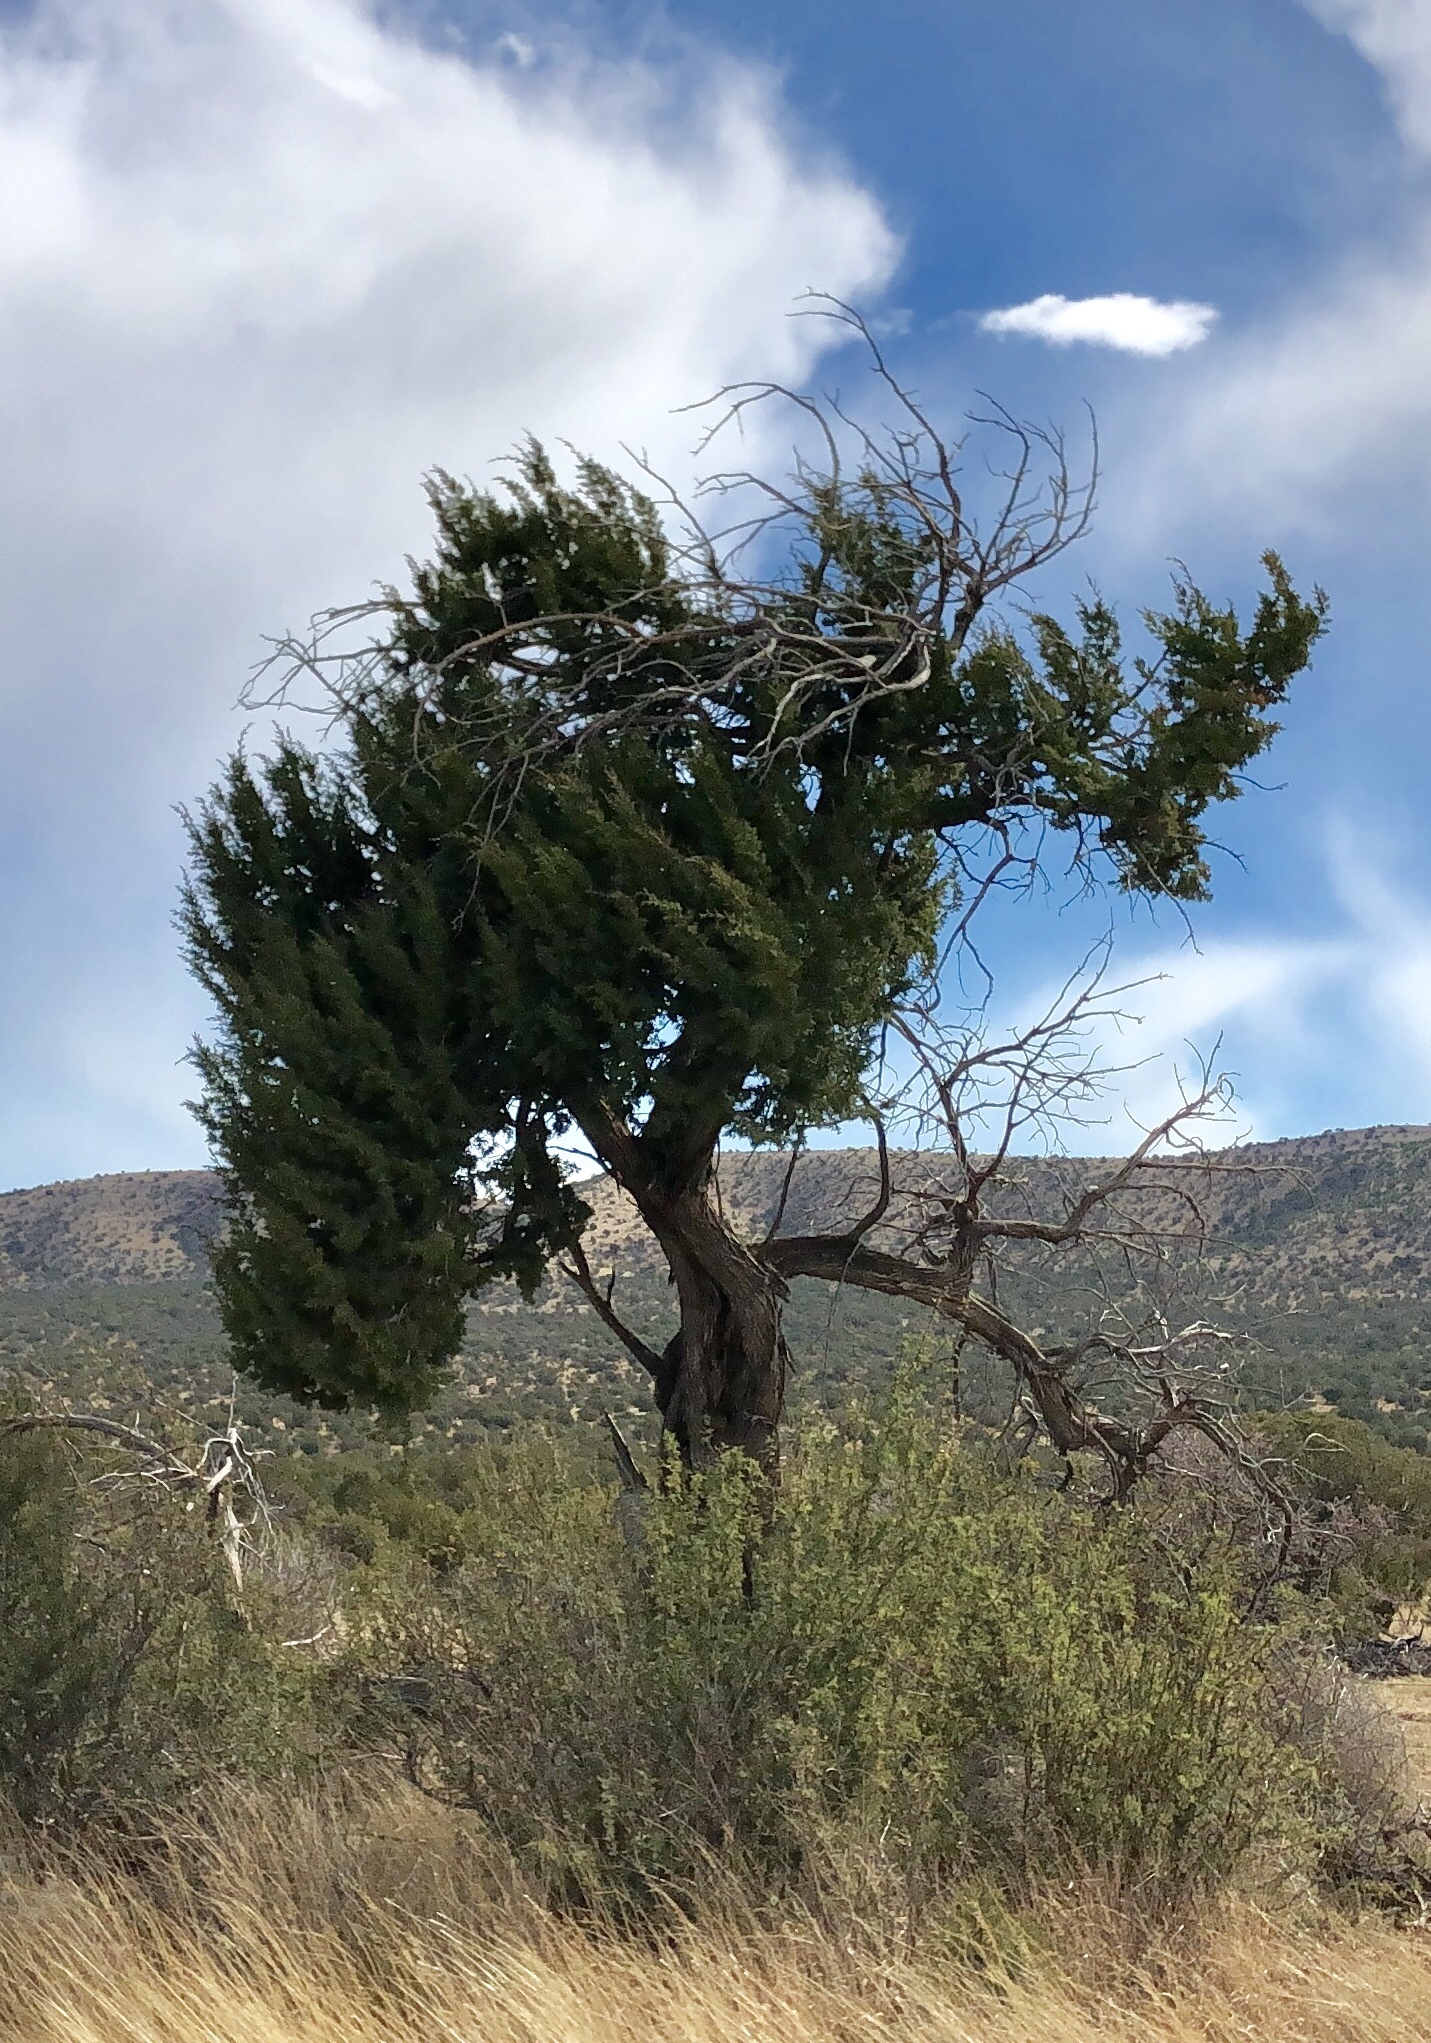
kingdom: Plantae
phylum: Tracheophyta
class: Pinopsida
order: Pinales
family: Cupressaceae
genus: Juniperus
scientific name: Juniperus monosperma
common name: One-seed juniper
